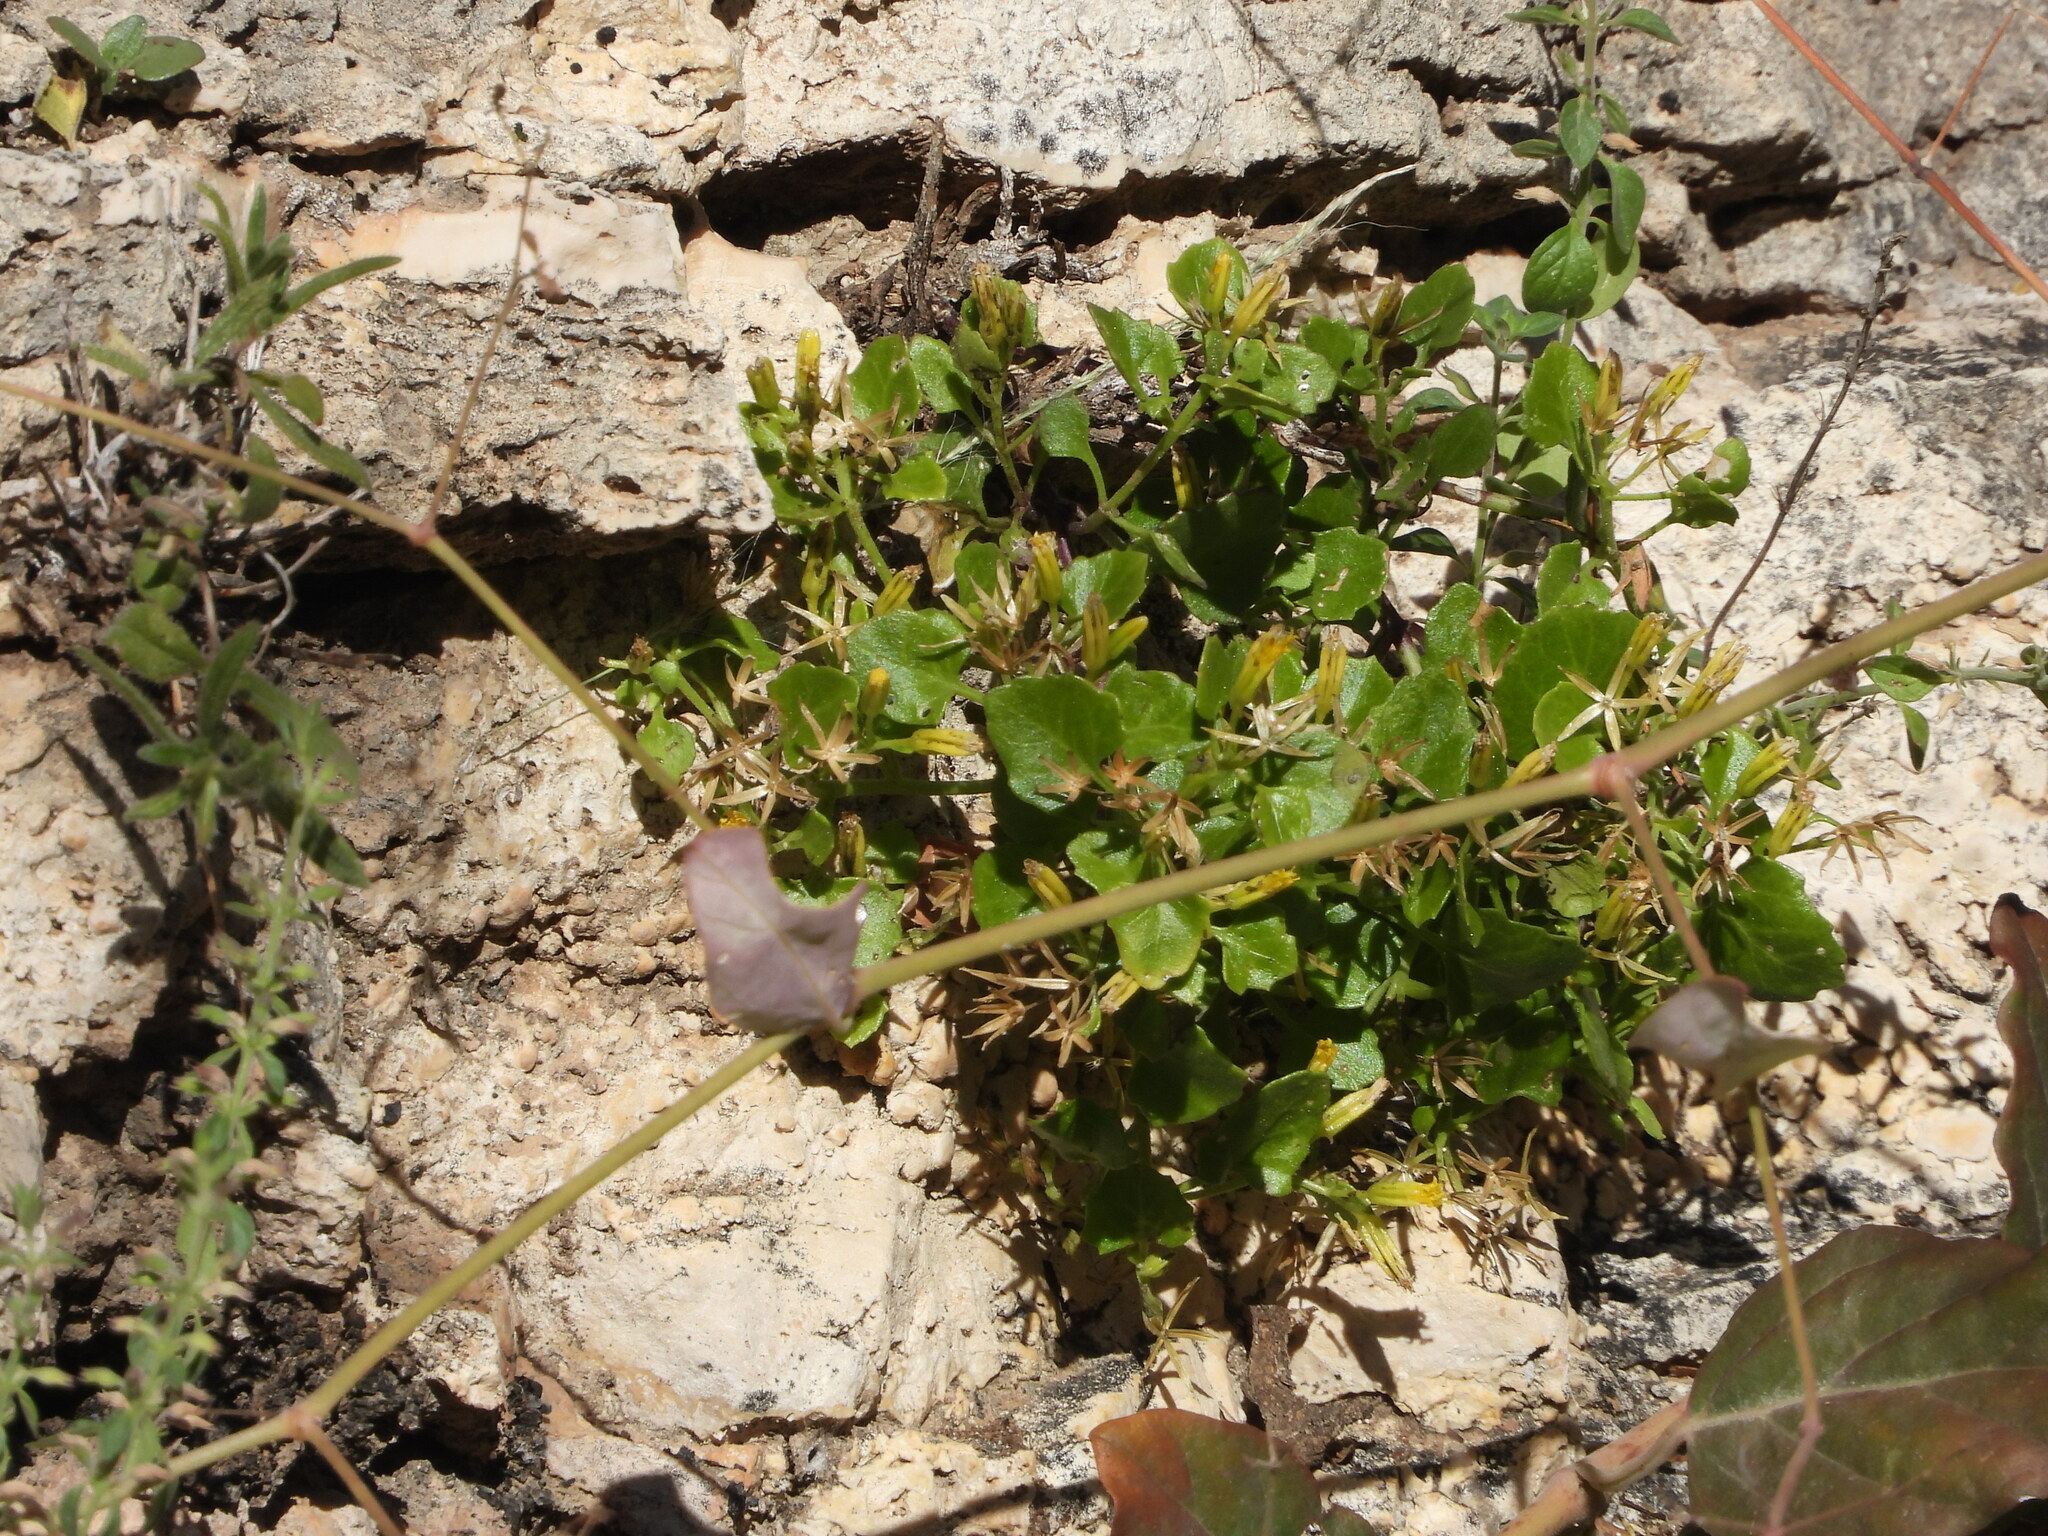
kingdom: Plantae
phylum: Tracheophyta
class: Magnoliopsida
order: Asterales
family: Asteraceae
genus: Laphamia
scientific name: Laphamia quinqueflora
